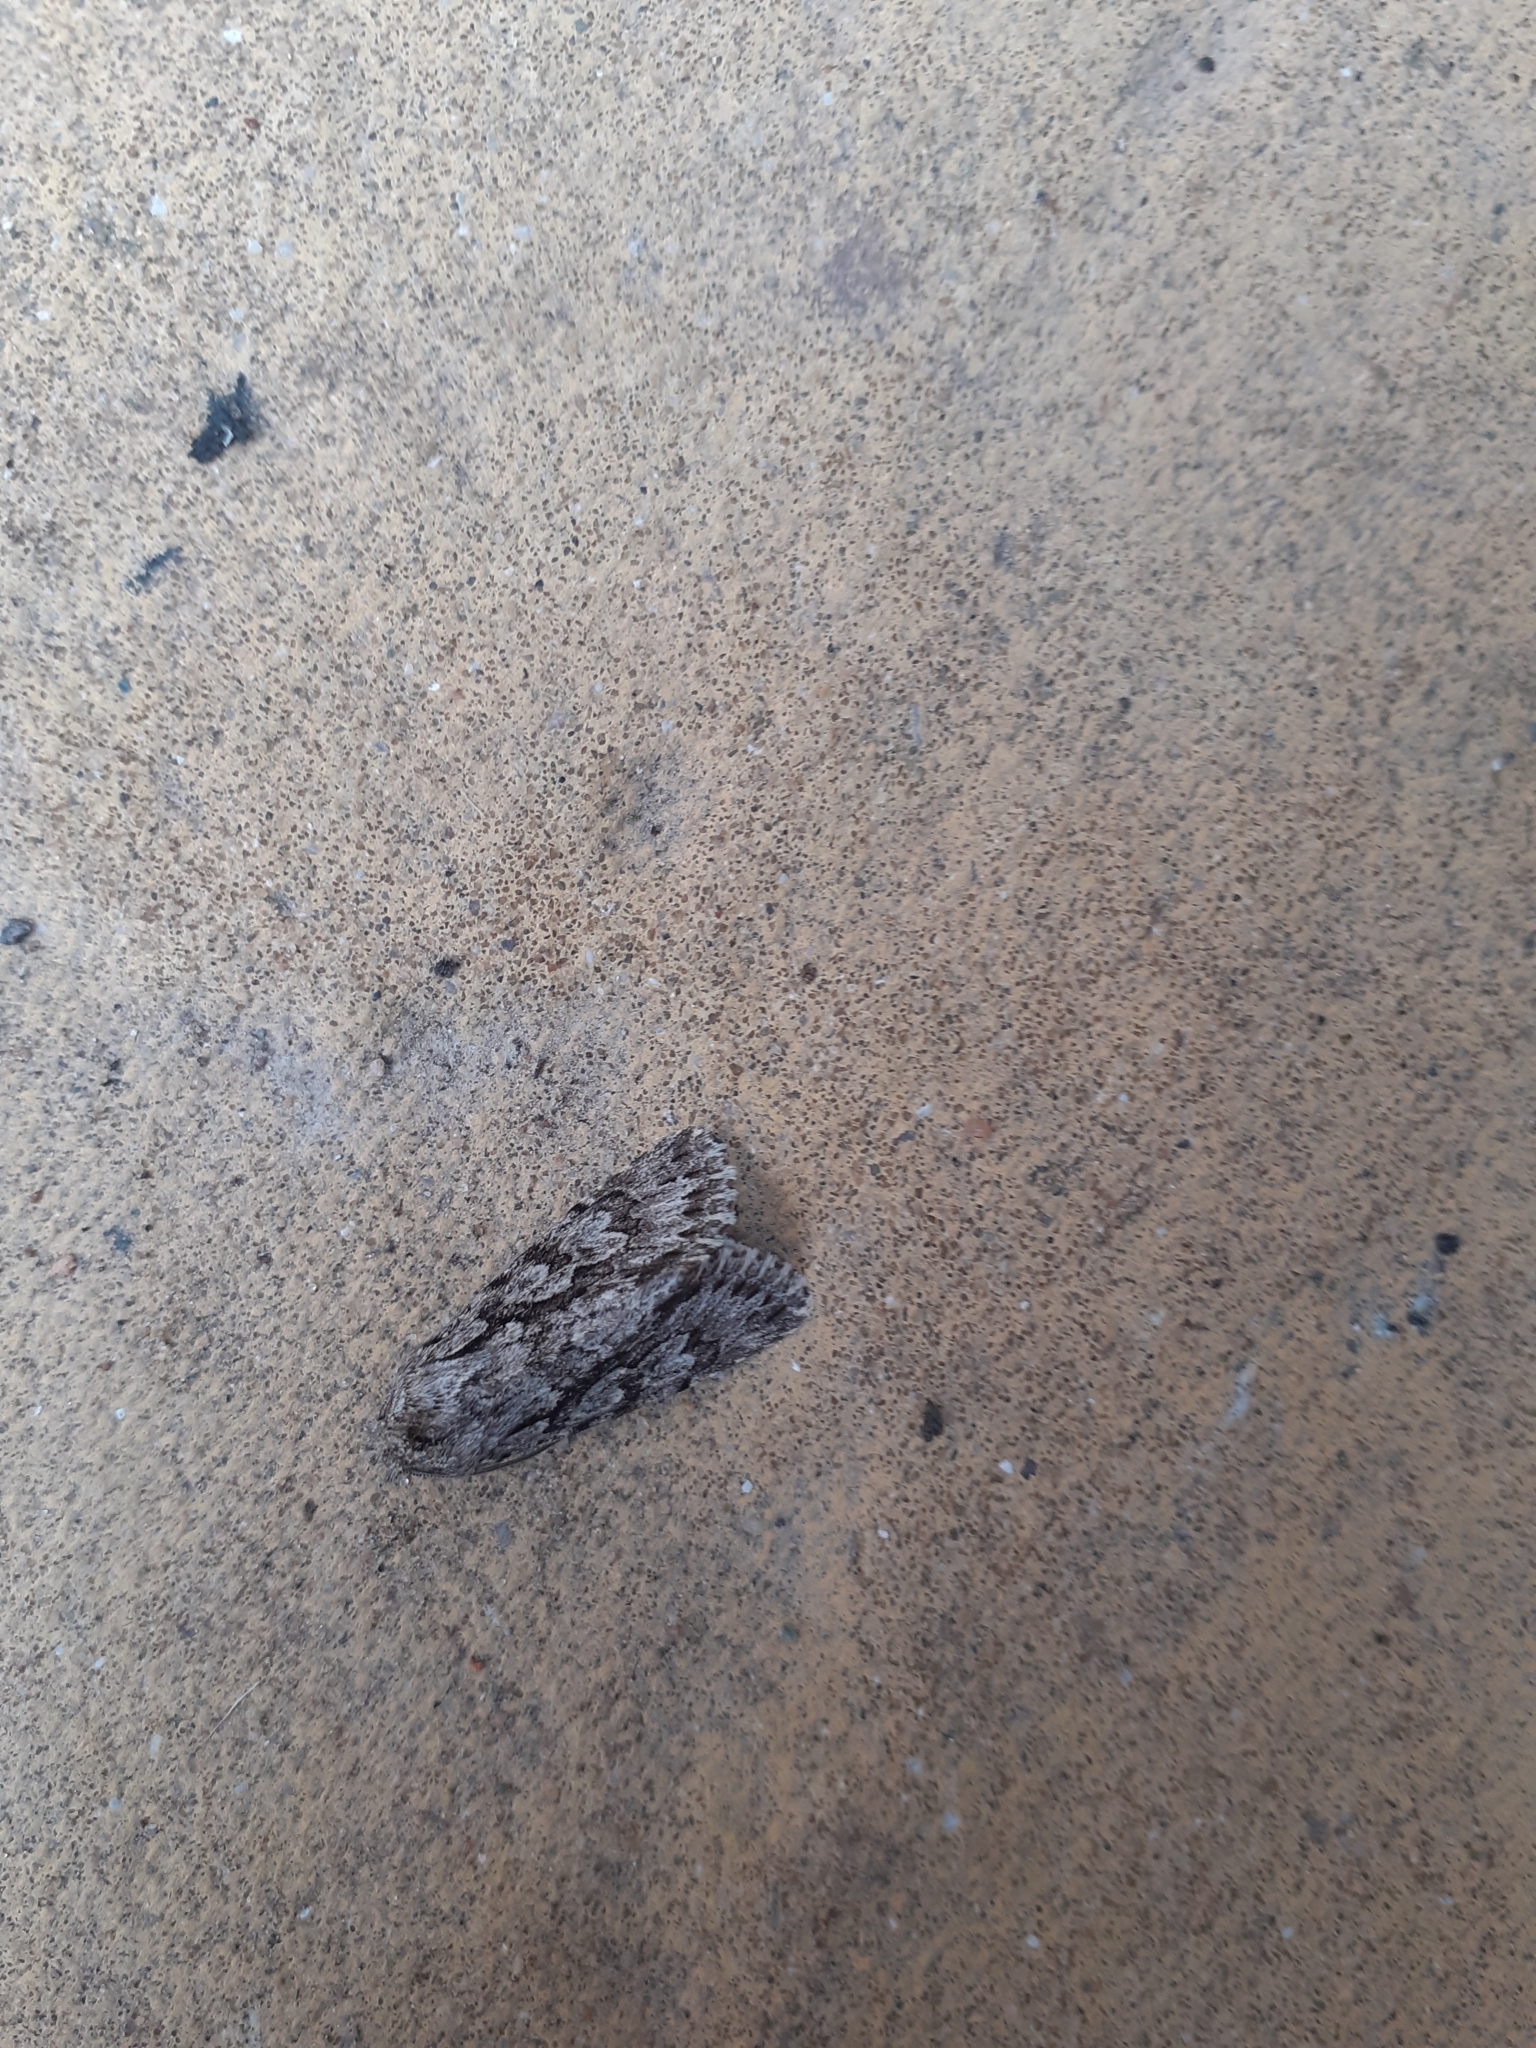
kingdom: Animalia
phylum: Arthropoda
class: Insecta
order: Lepidoptera
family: Noctuidae
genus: Xylocampa
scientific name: Xylocampa areola
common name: Early grey
